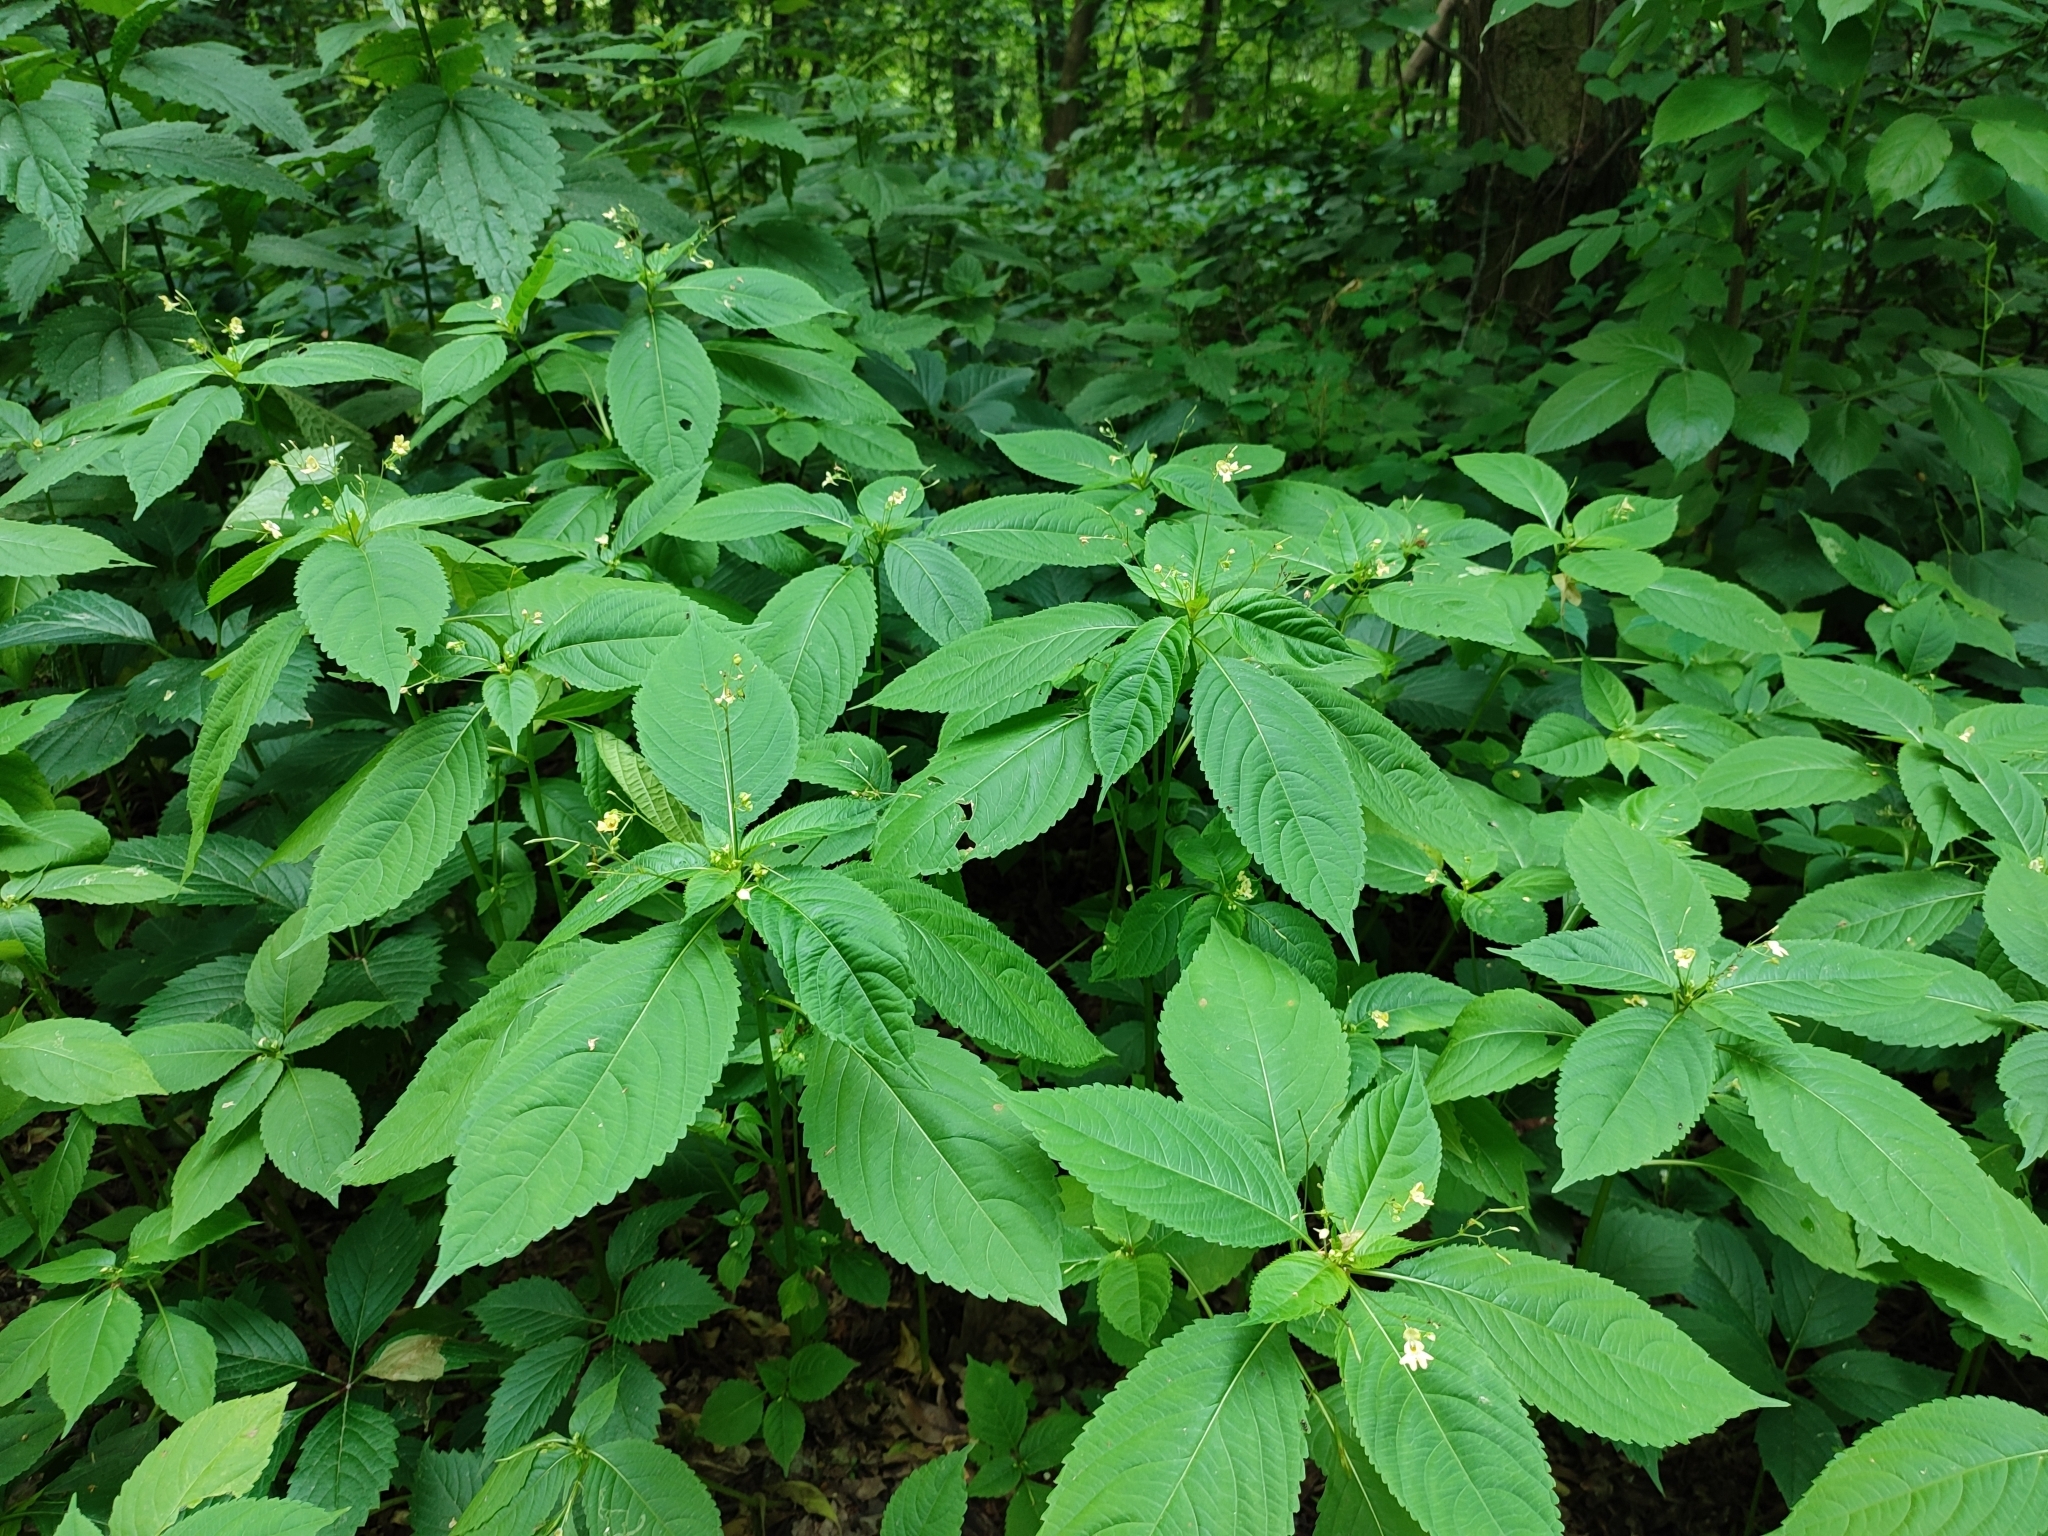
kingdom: Plantae
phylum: Tracheophyta
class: Magnoliopsida
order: Ericales
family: Balsaminaceae
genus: Impatiens
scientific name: Impatiens parviflora
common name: Small balsam
